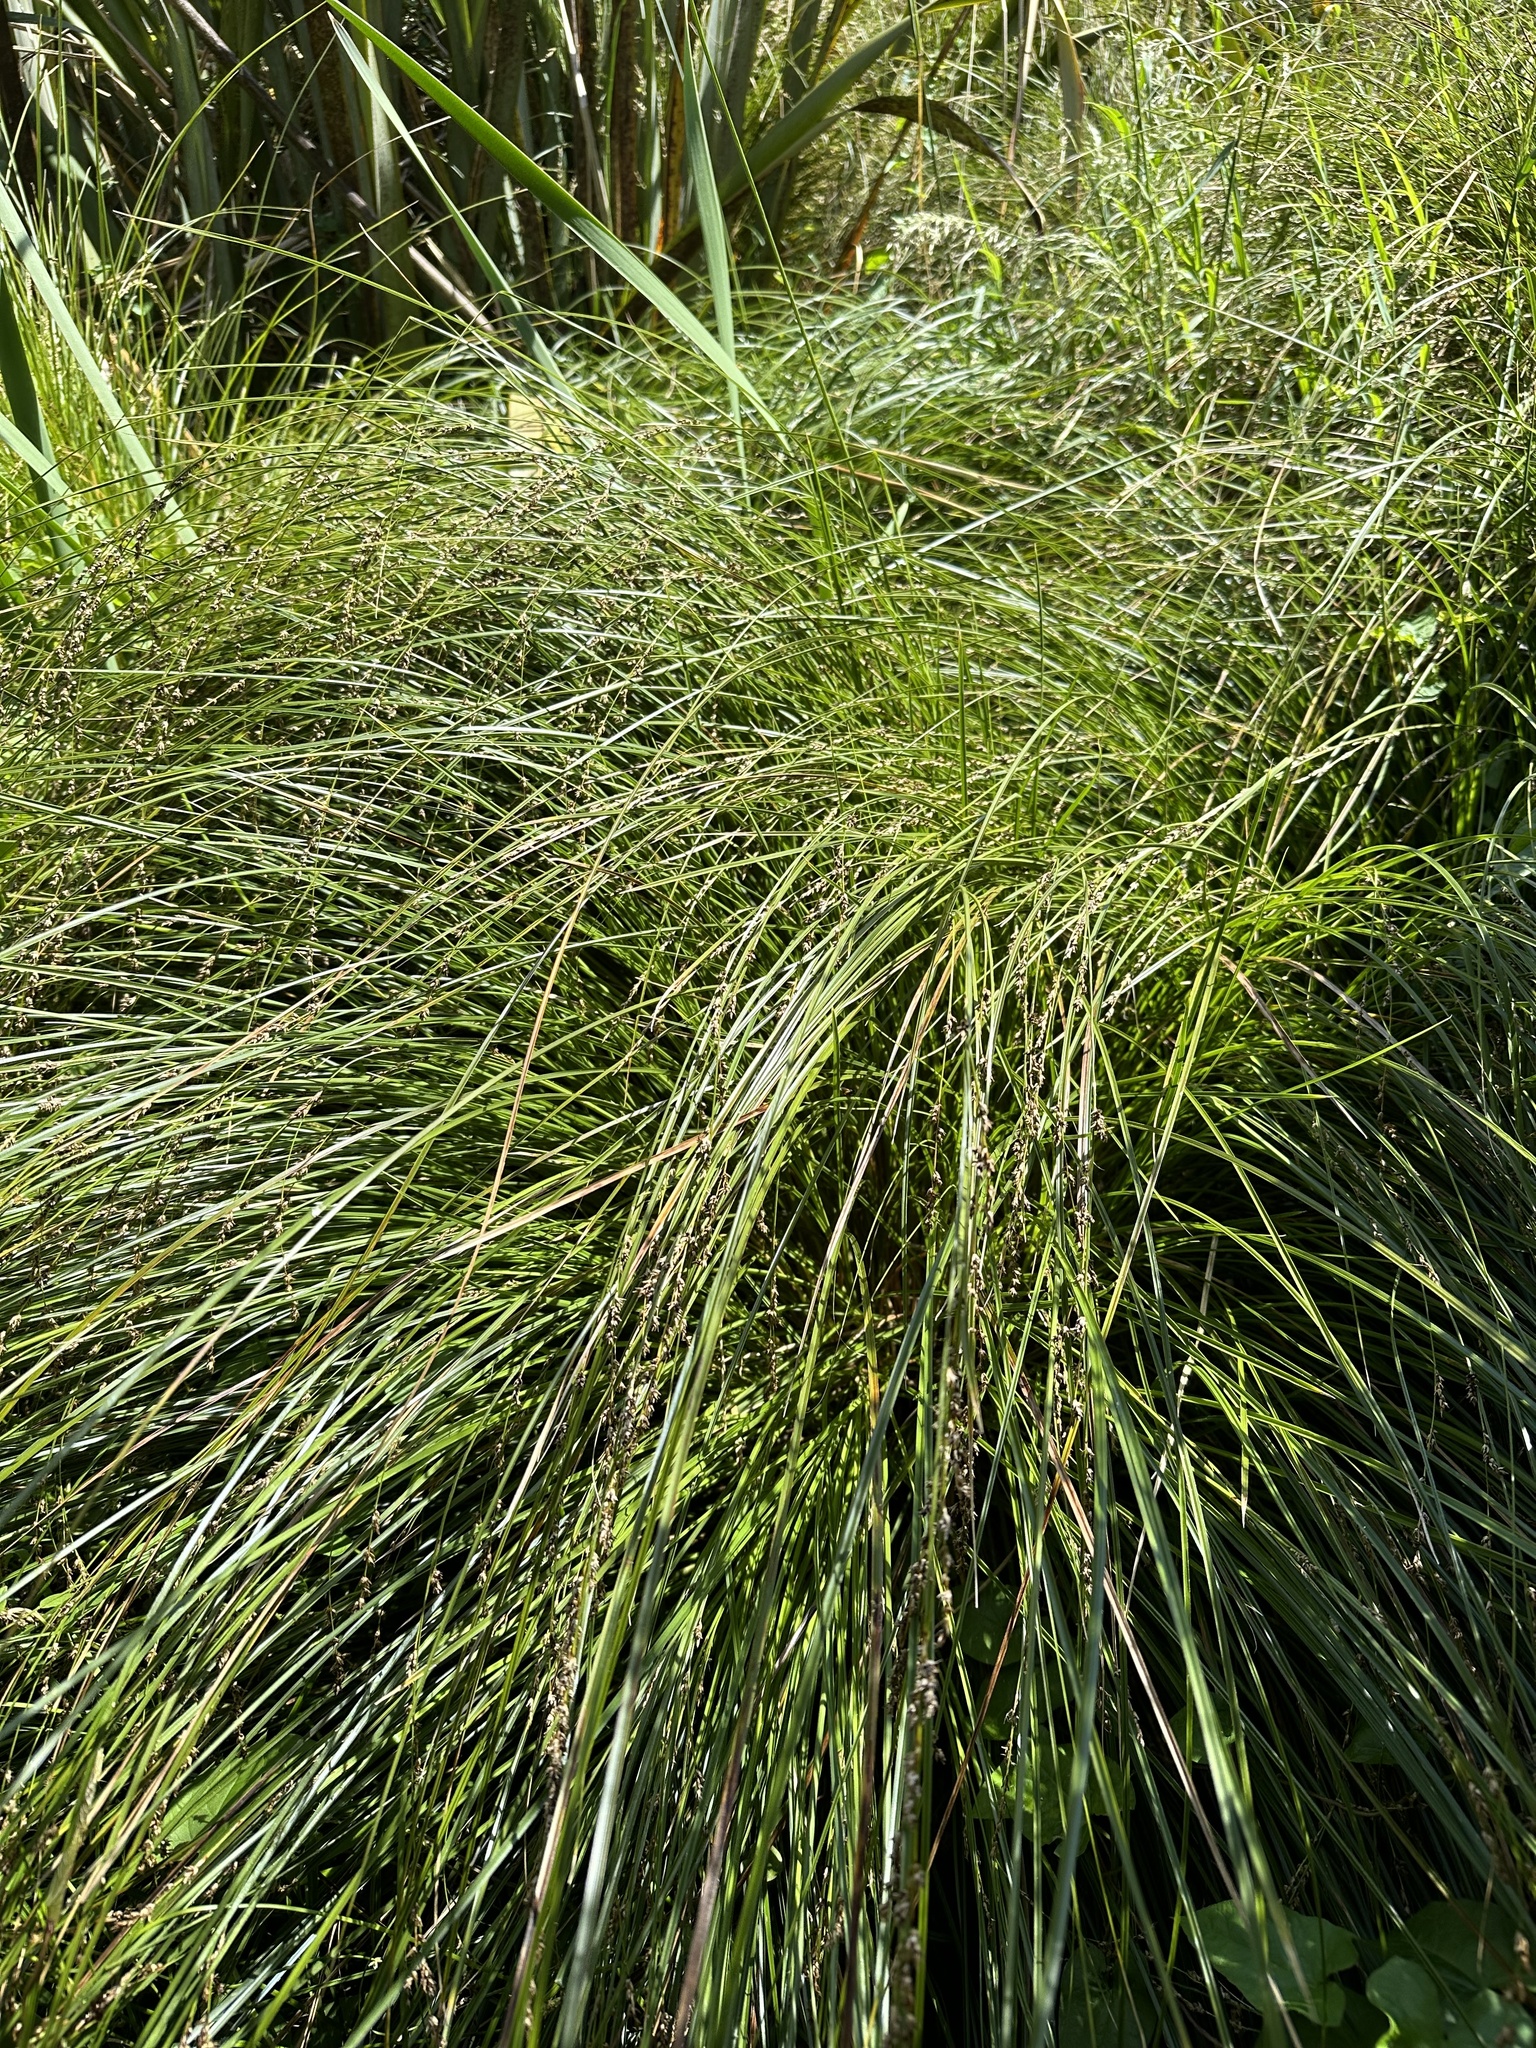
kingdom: Plantae
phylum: Tracheophyta
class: Liliopsida
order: Poales
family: Cyperaceae
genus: Carex
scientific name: Carex secta
